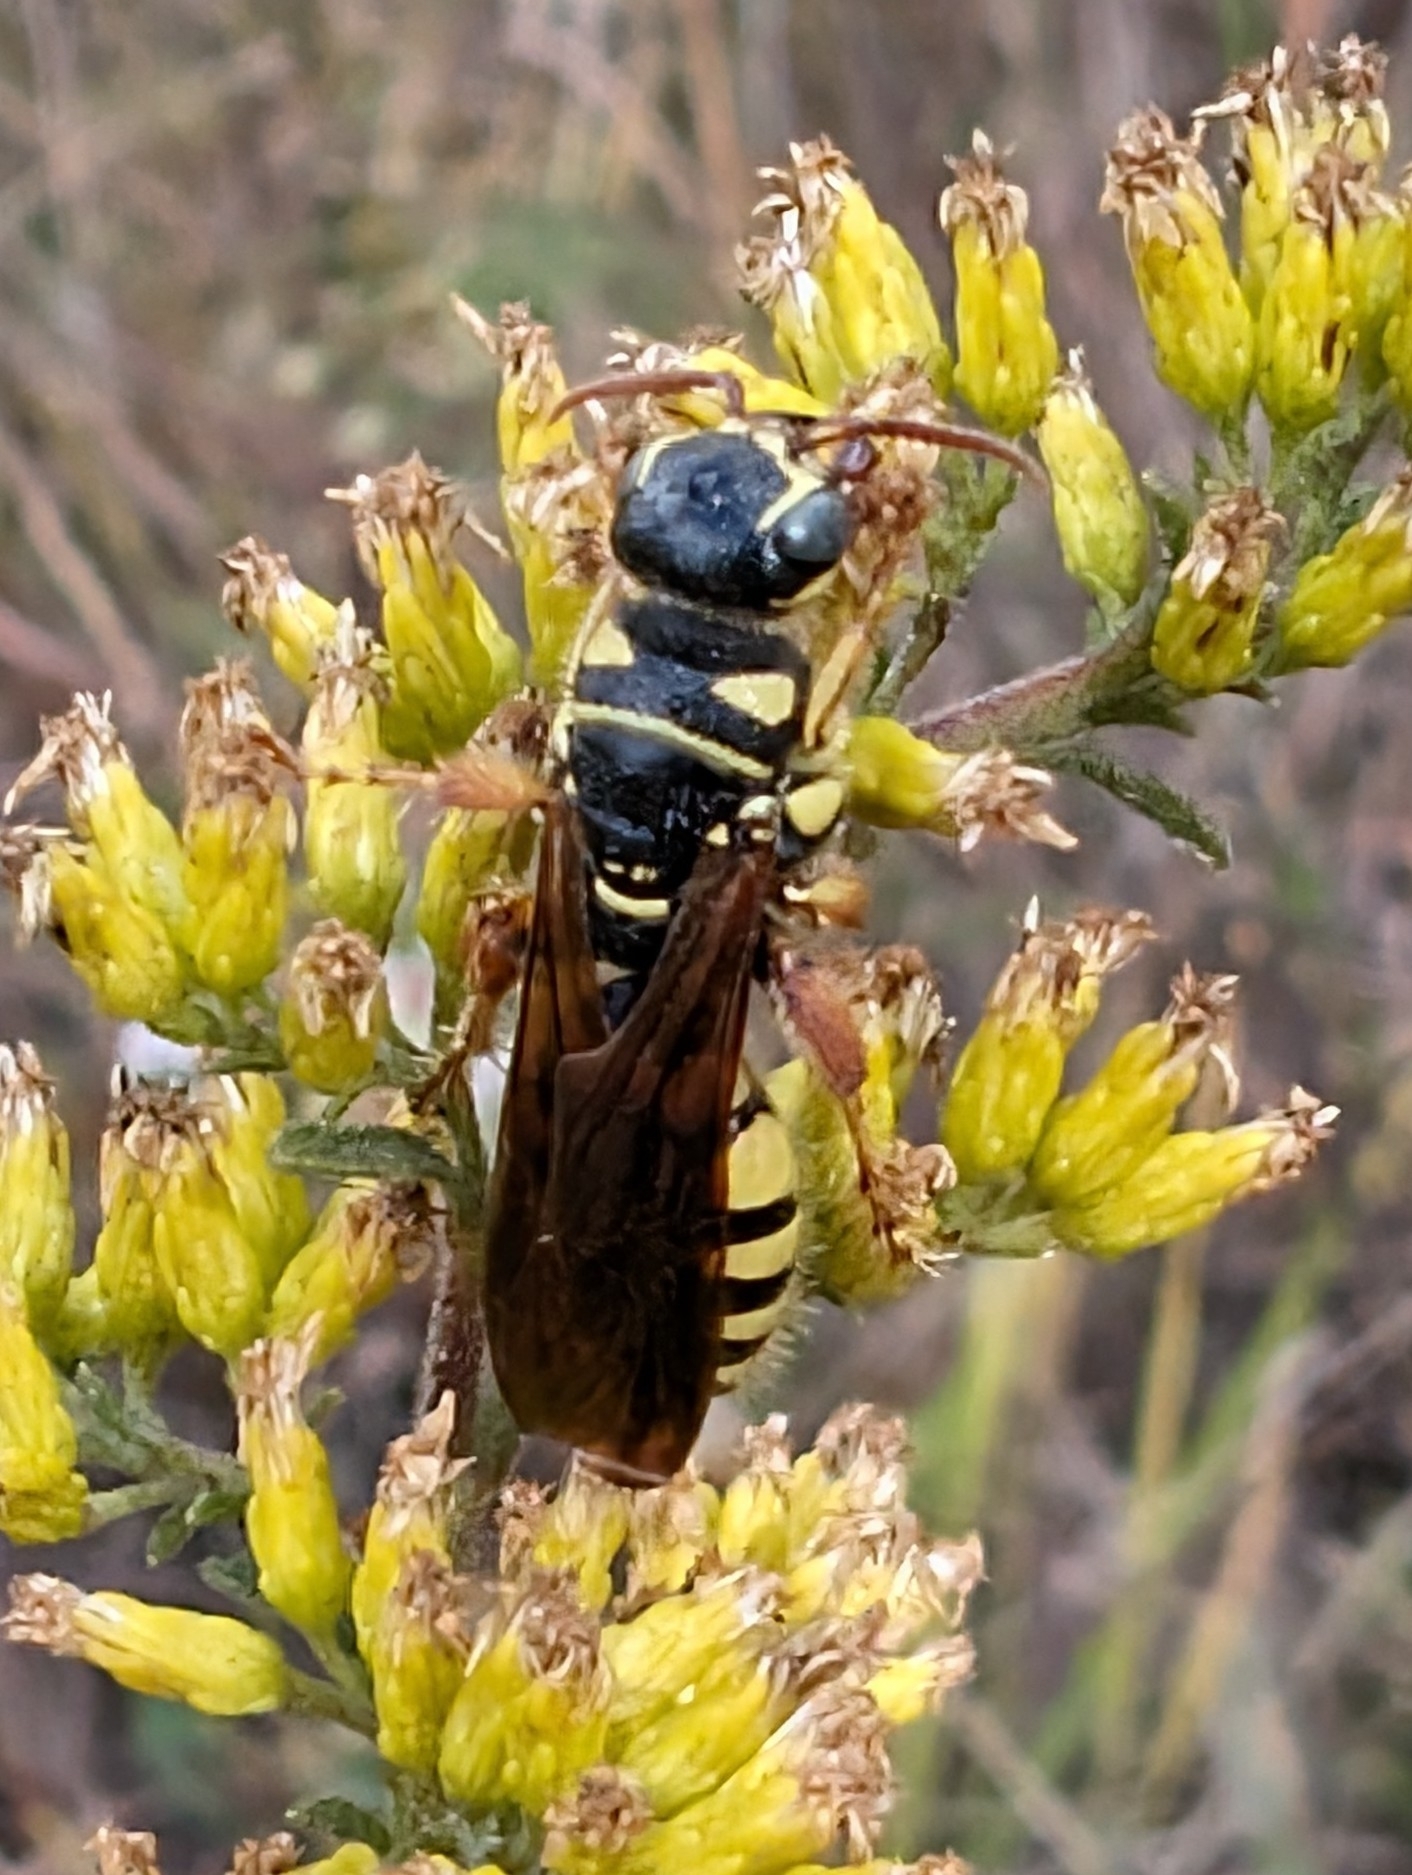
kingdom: Animalia
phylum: Arthropoda
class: Insecta
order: Hymenoptera
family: Tiphiidae
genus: Myzinum
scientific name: Myzinum quinquecinctum
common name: Five-banded thynnid wasp
